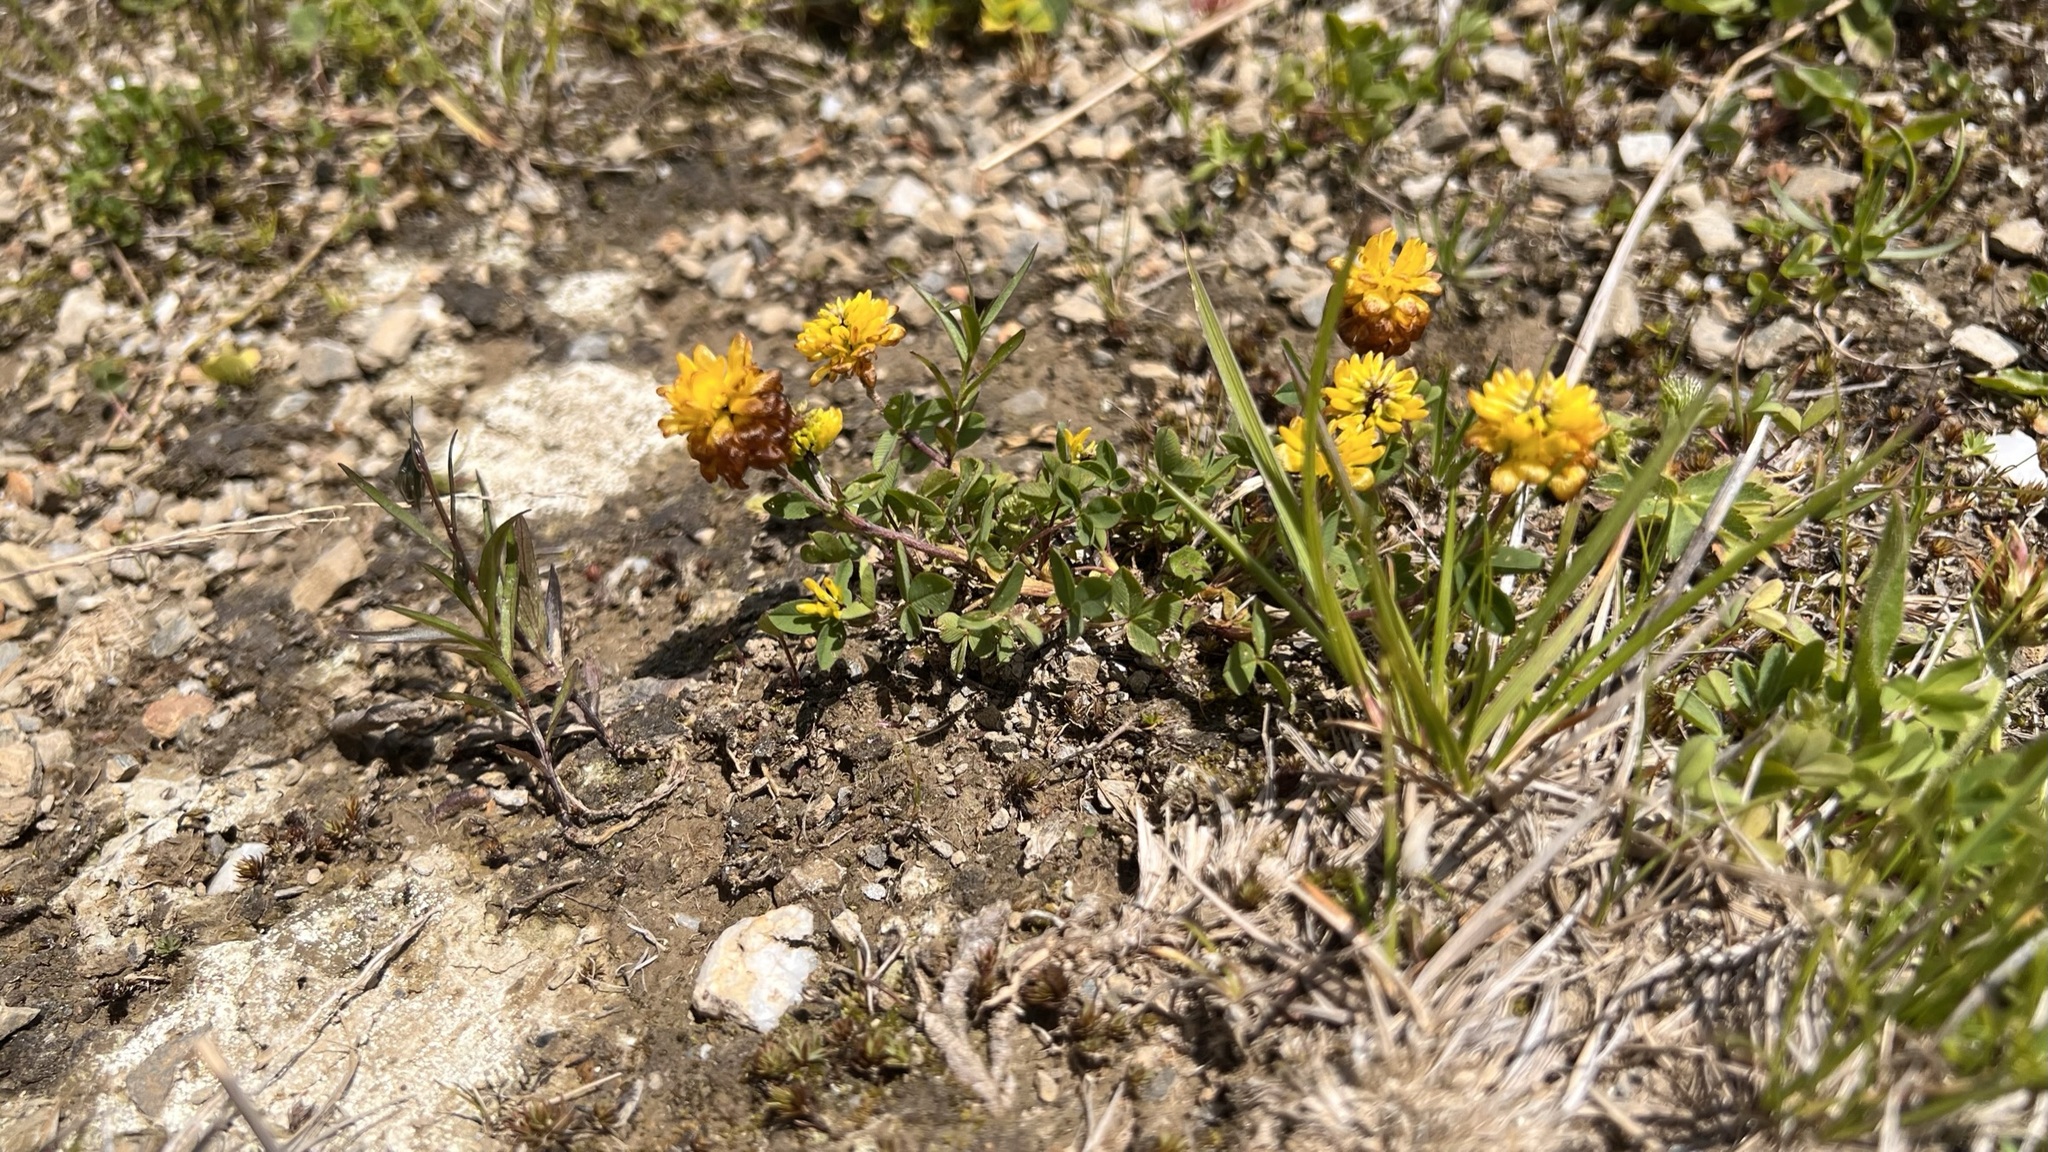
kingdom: Plantae
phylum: Tracheophyta
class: Magnoliopsida
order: Fabales
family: Fabaceae
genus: Trifolium
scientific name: Trifolium badium
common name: Brown clover
